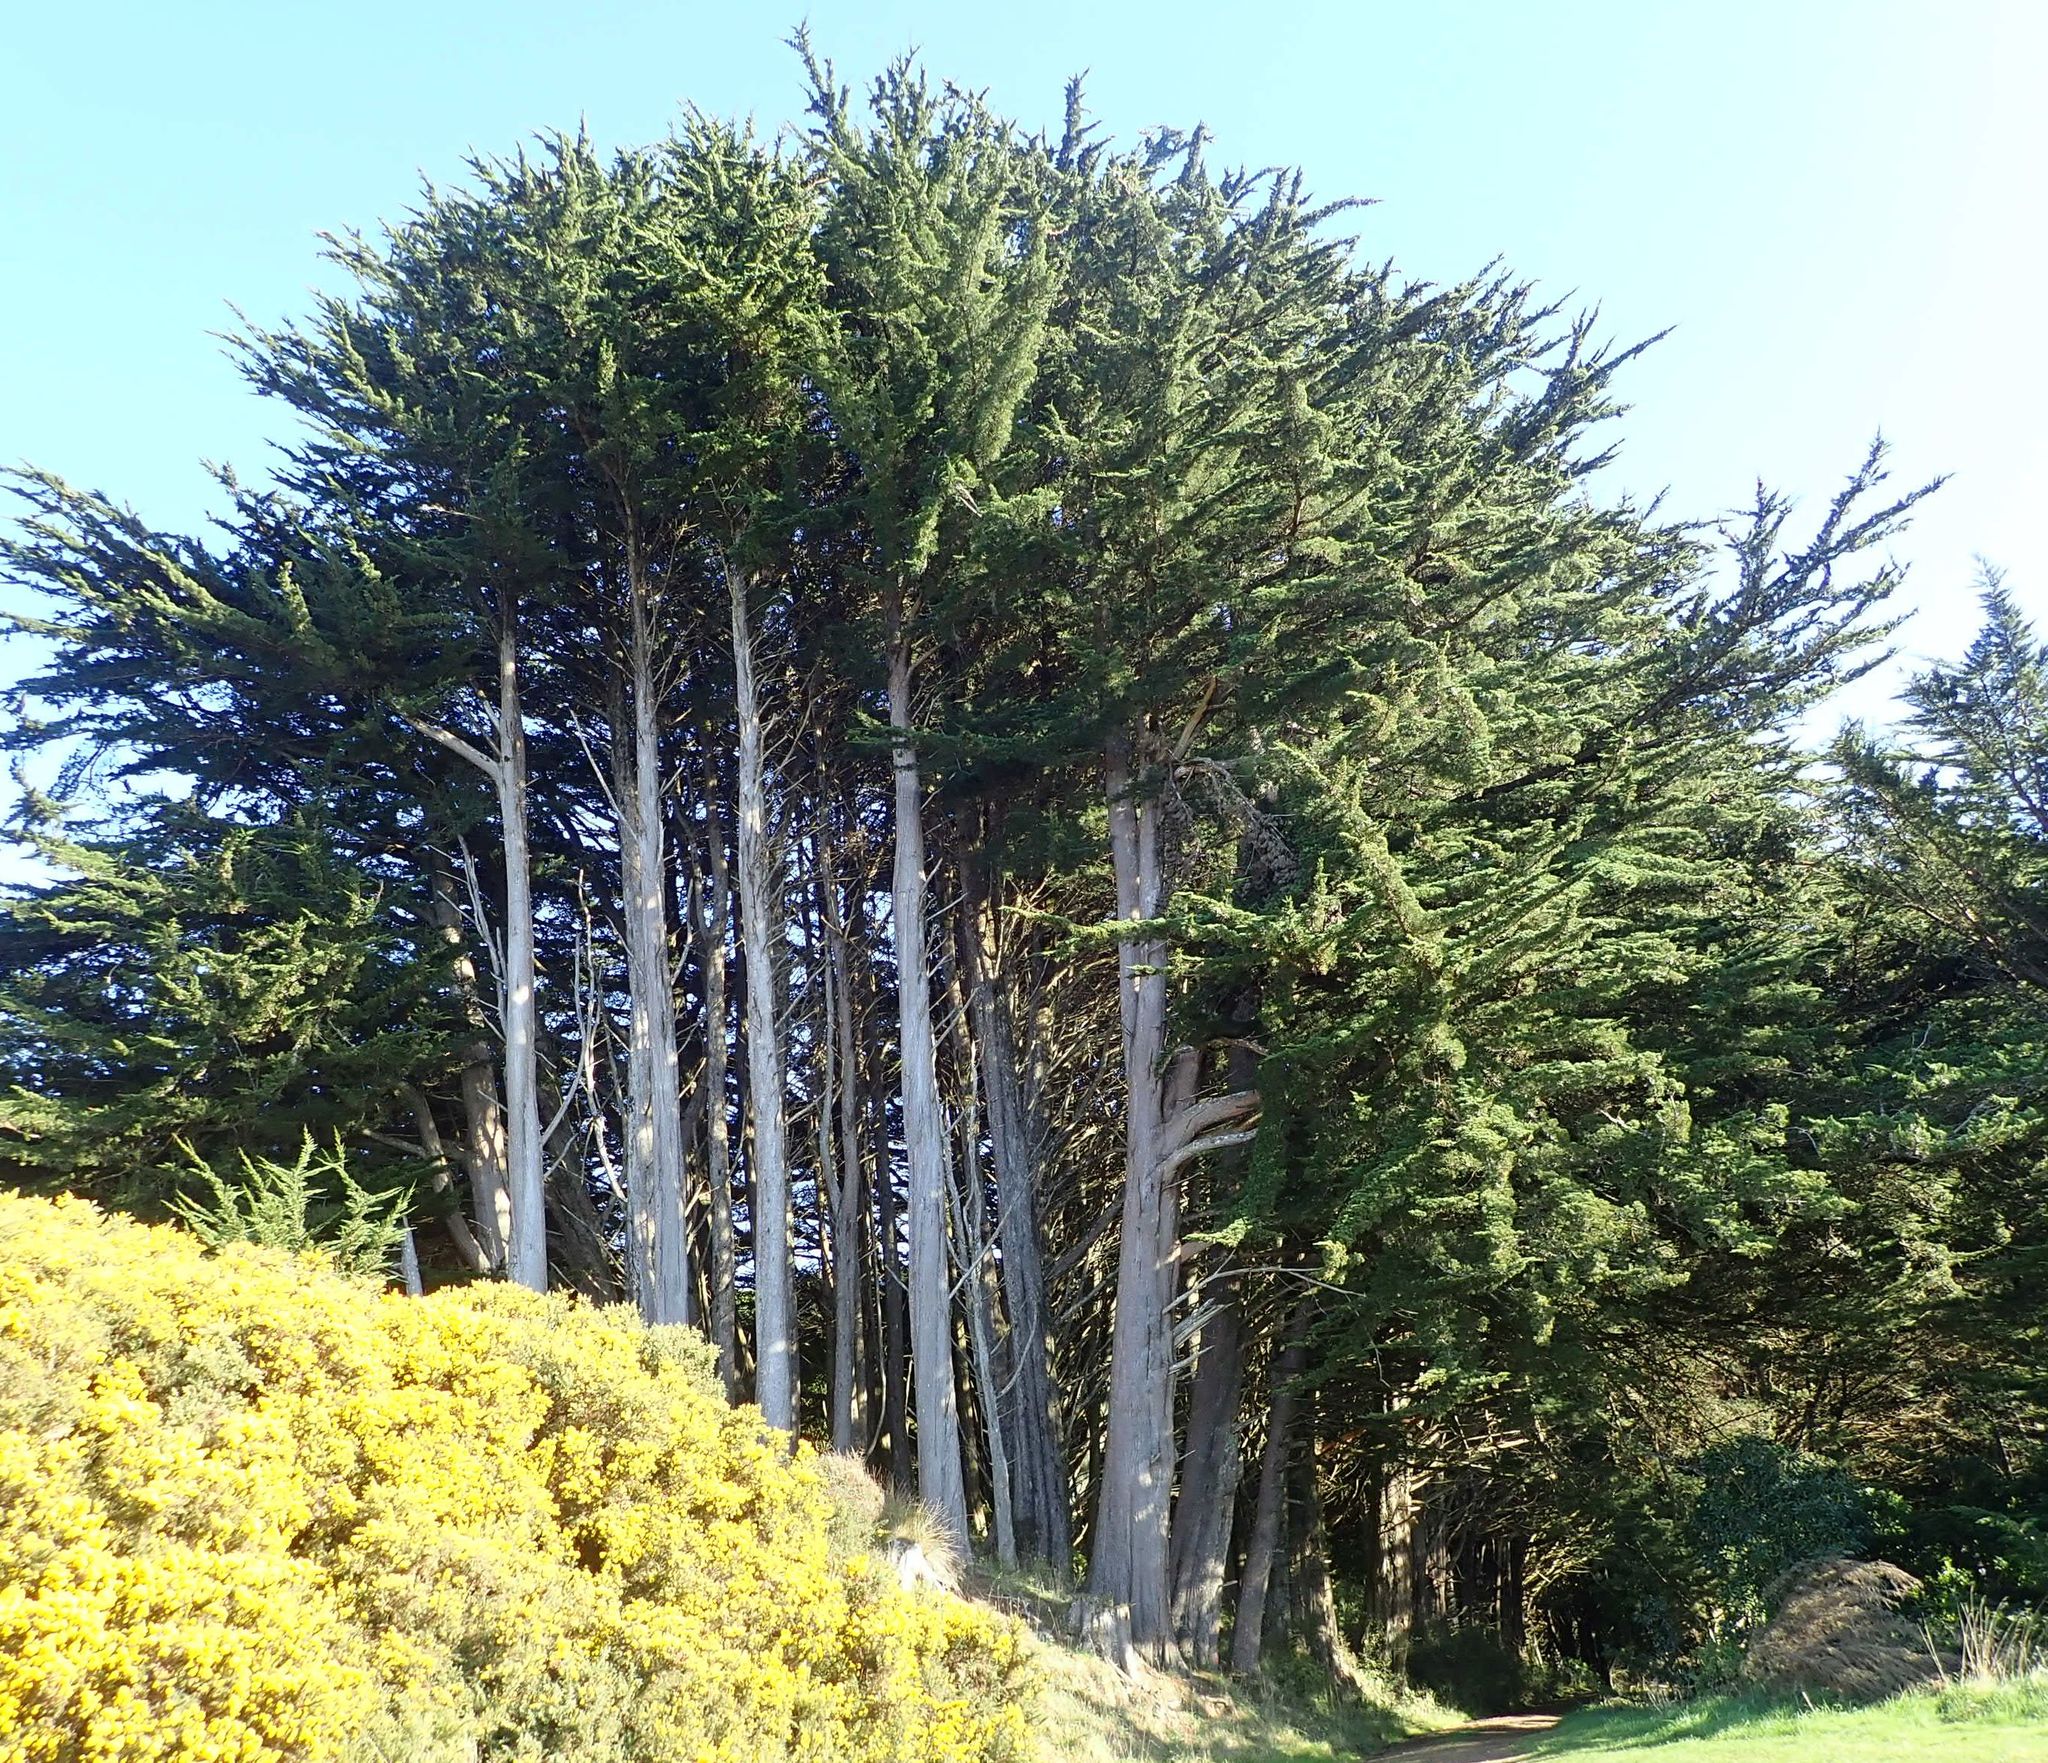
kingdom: Plantae
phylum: Tracheophyta
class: Pinopsida
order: Pinales
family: Cupressaceae
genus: Cupressus
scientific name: Cupressus macrocarpa
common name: Monterey cypress
